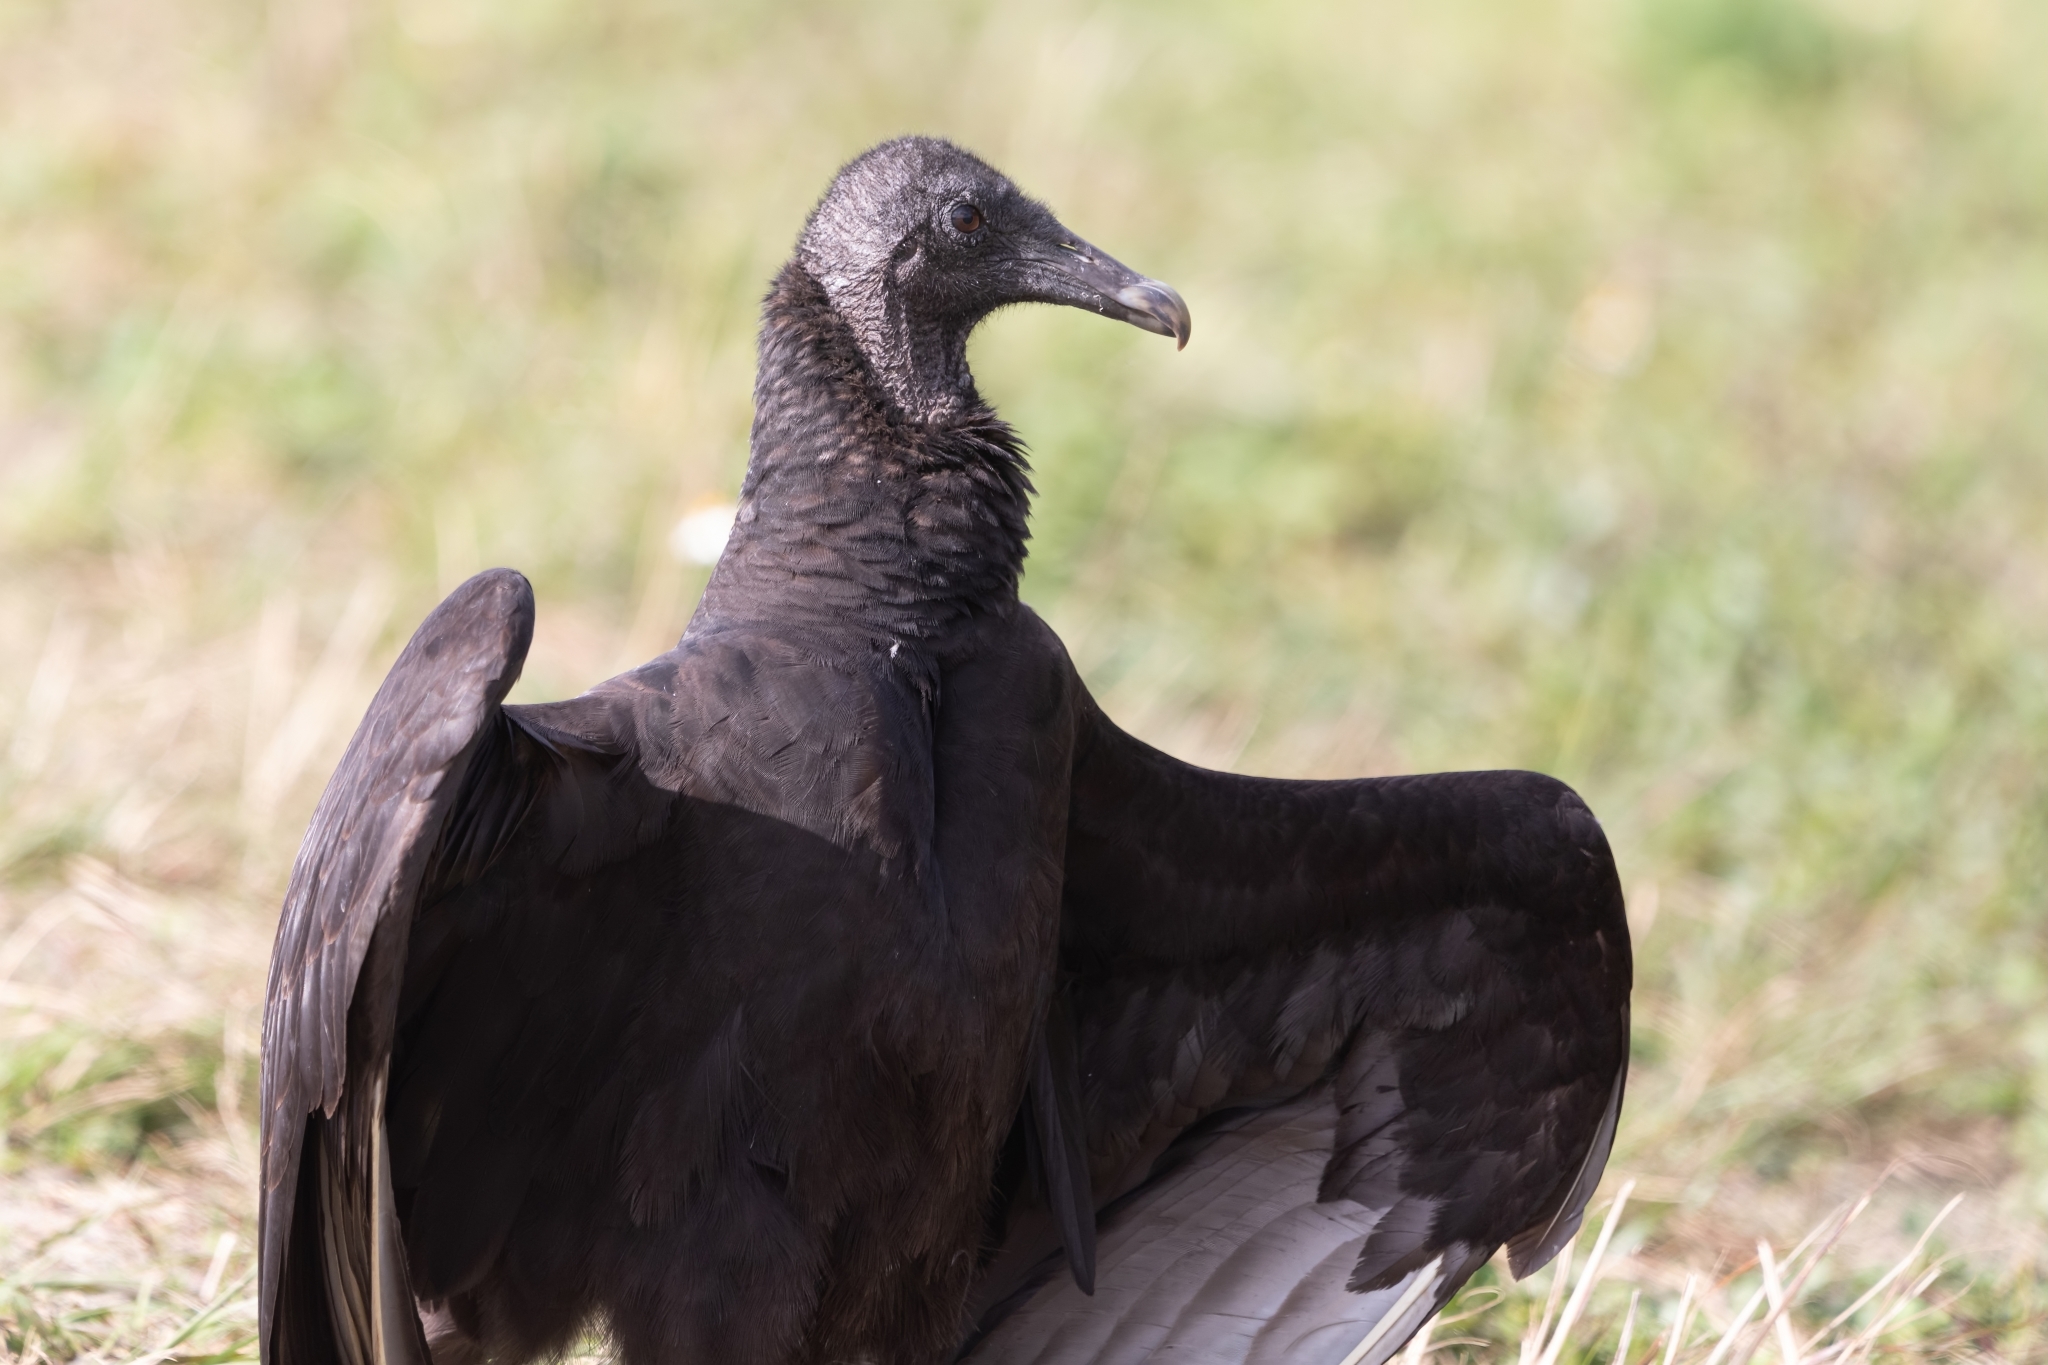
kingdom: Animalia
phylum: Chordata
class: Aves
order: Accipitriformes
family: Cathartidae
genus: Coragyps
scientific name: Coragyps atratus
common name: Black vulture
